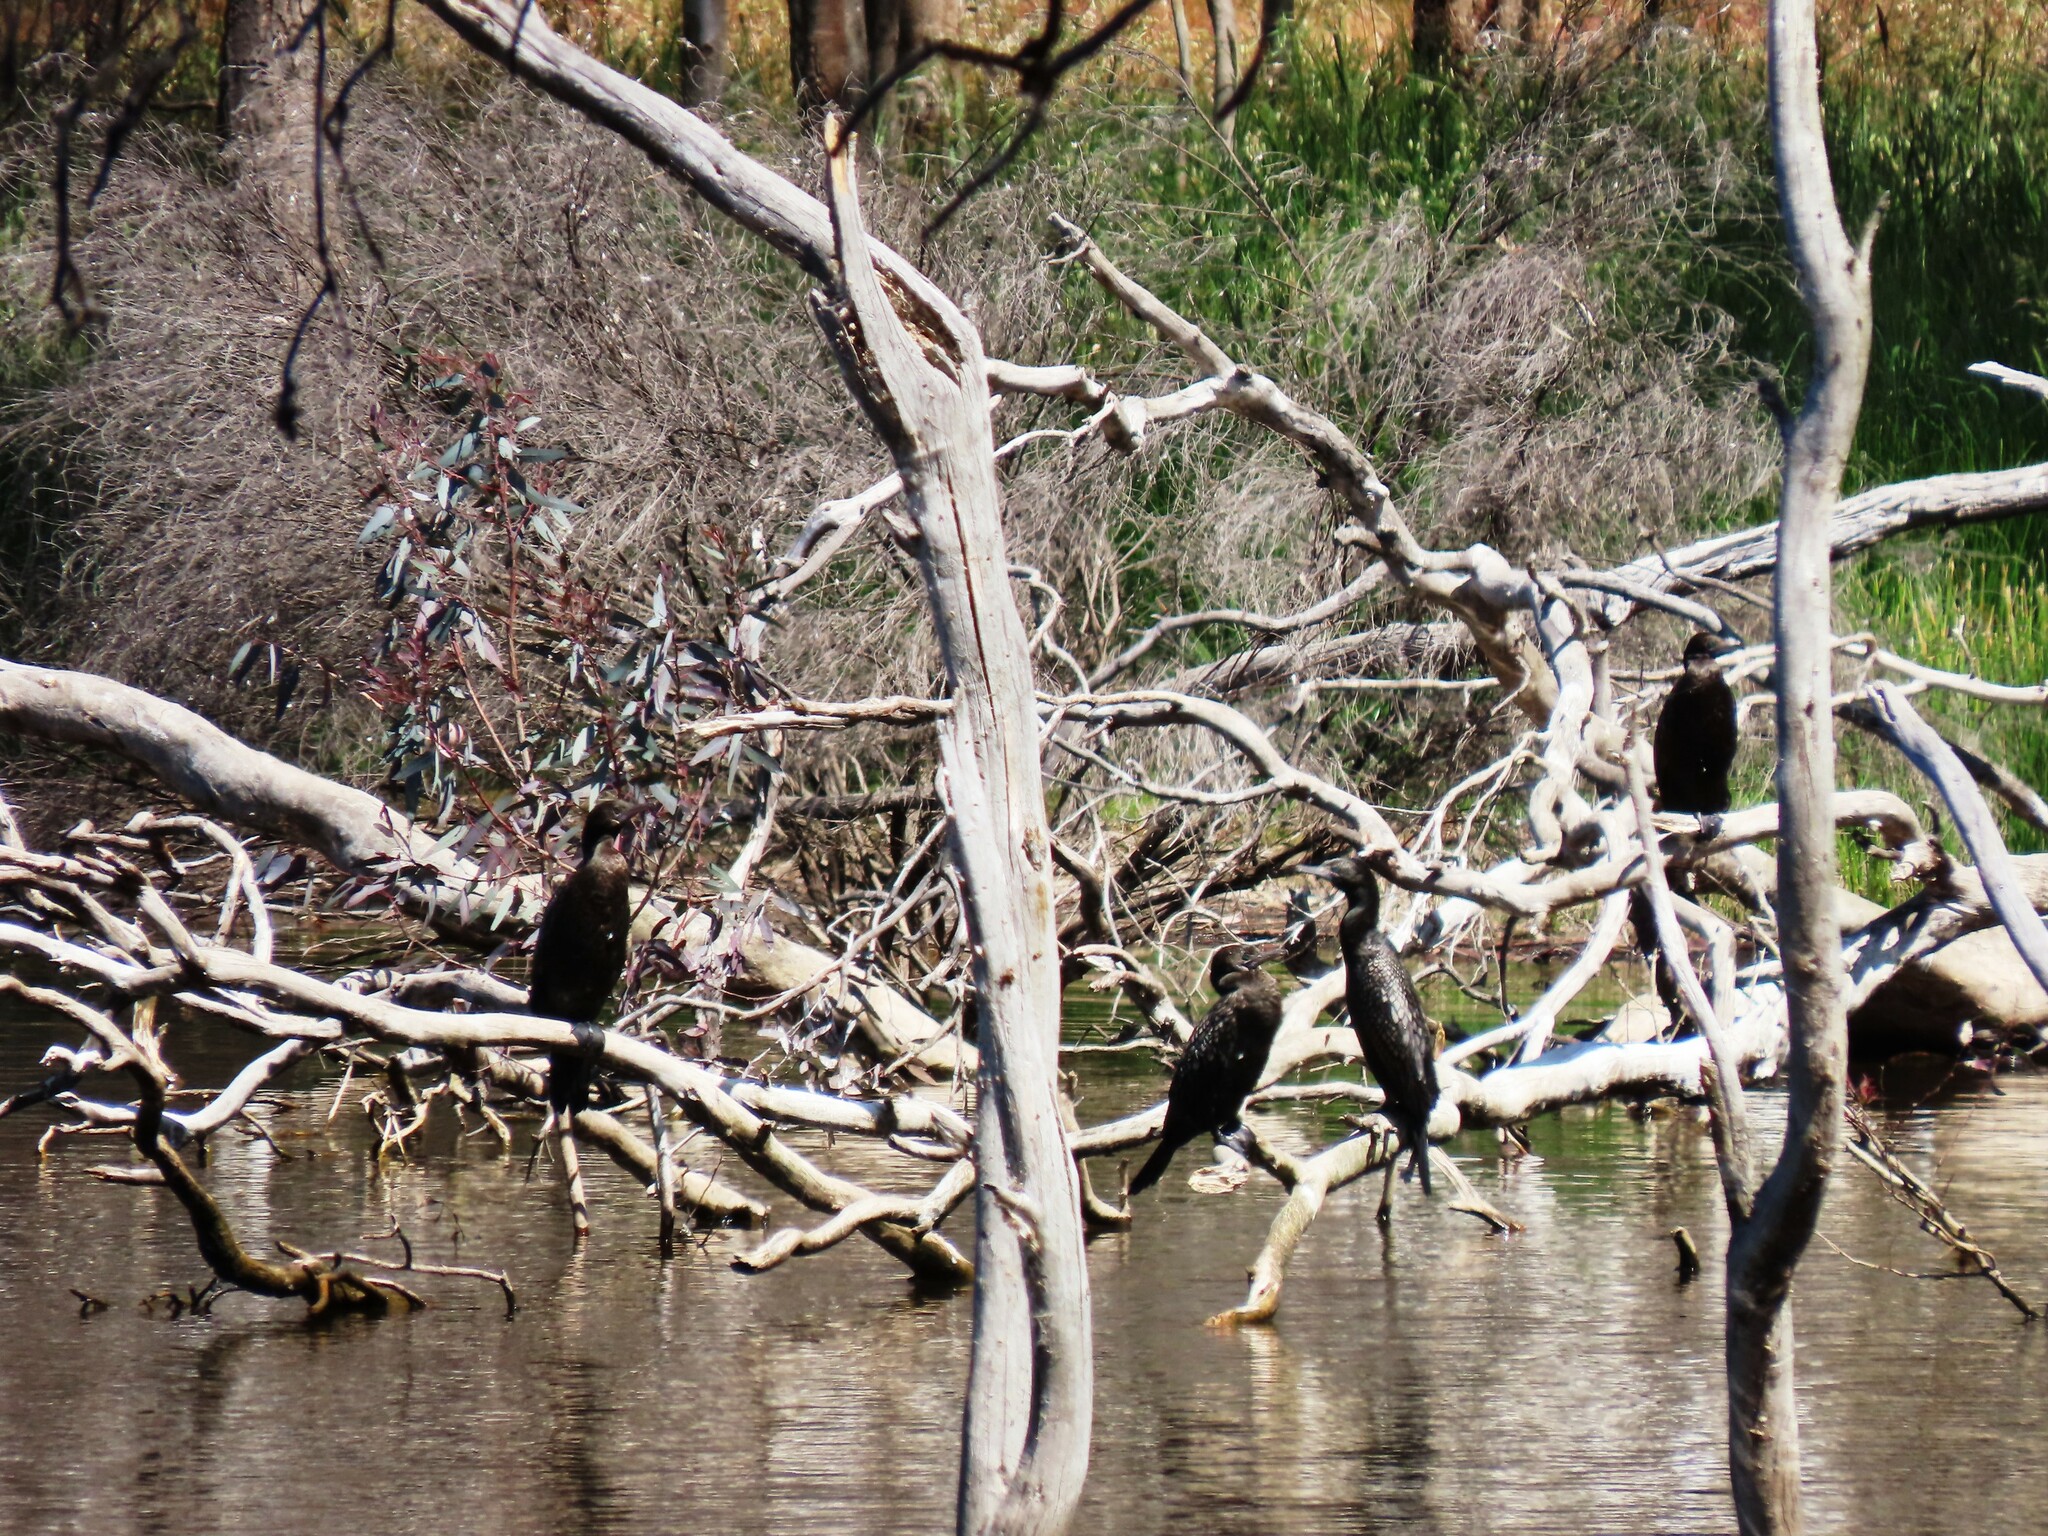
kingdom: Animalia
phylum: Chordata
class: Aves
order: Suliformes
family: Phalacrocoracidae
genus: Phalacrocorax
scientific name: Phalacrocorax sulcirostris
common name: Little black cormorant
